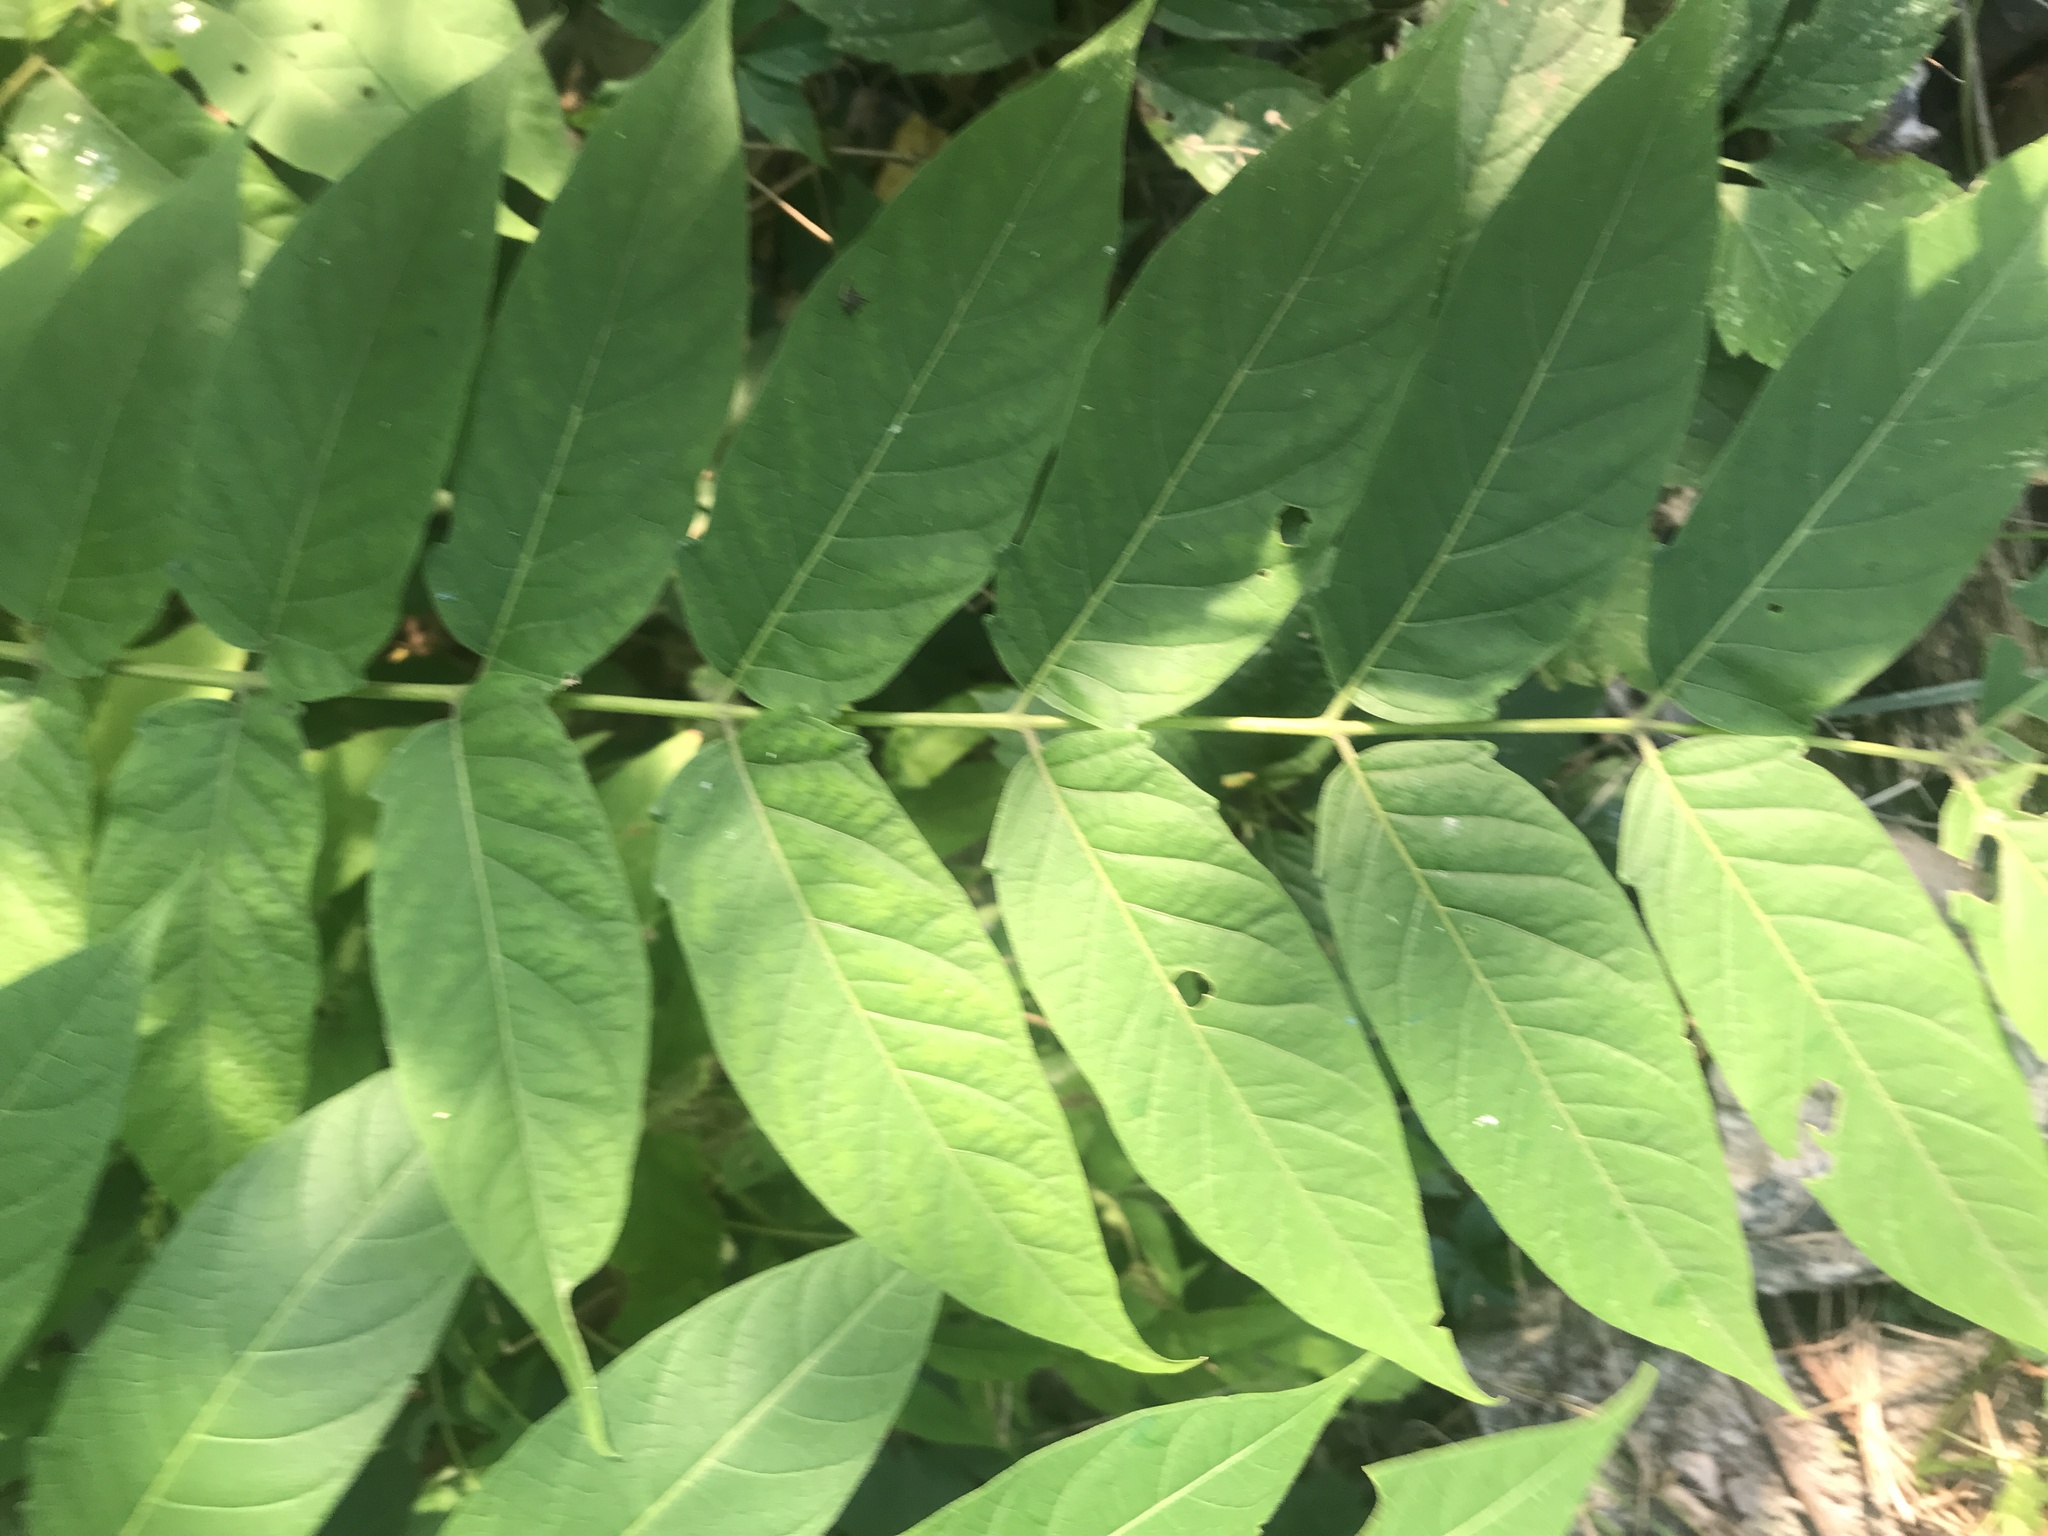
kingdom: Plantae
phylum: Tracheophyta
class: Magnoliopsida
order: Sapindales
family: Simaroubaceae
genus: Ailanthus
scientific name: Ailanthus altissima
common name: Tree-of-heaven
